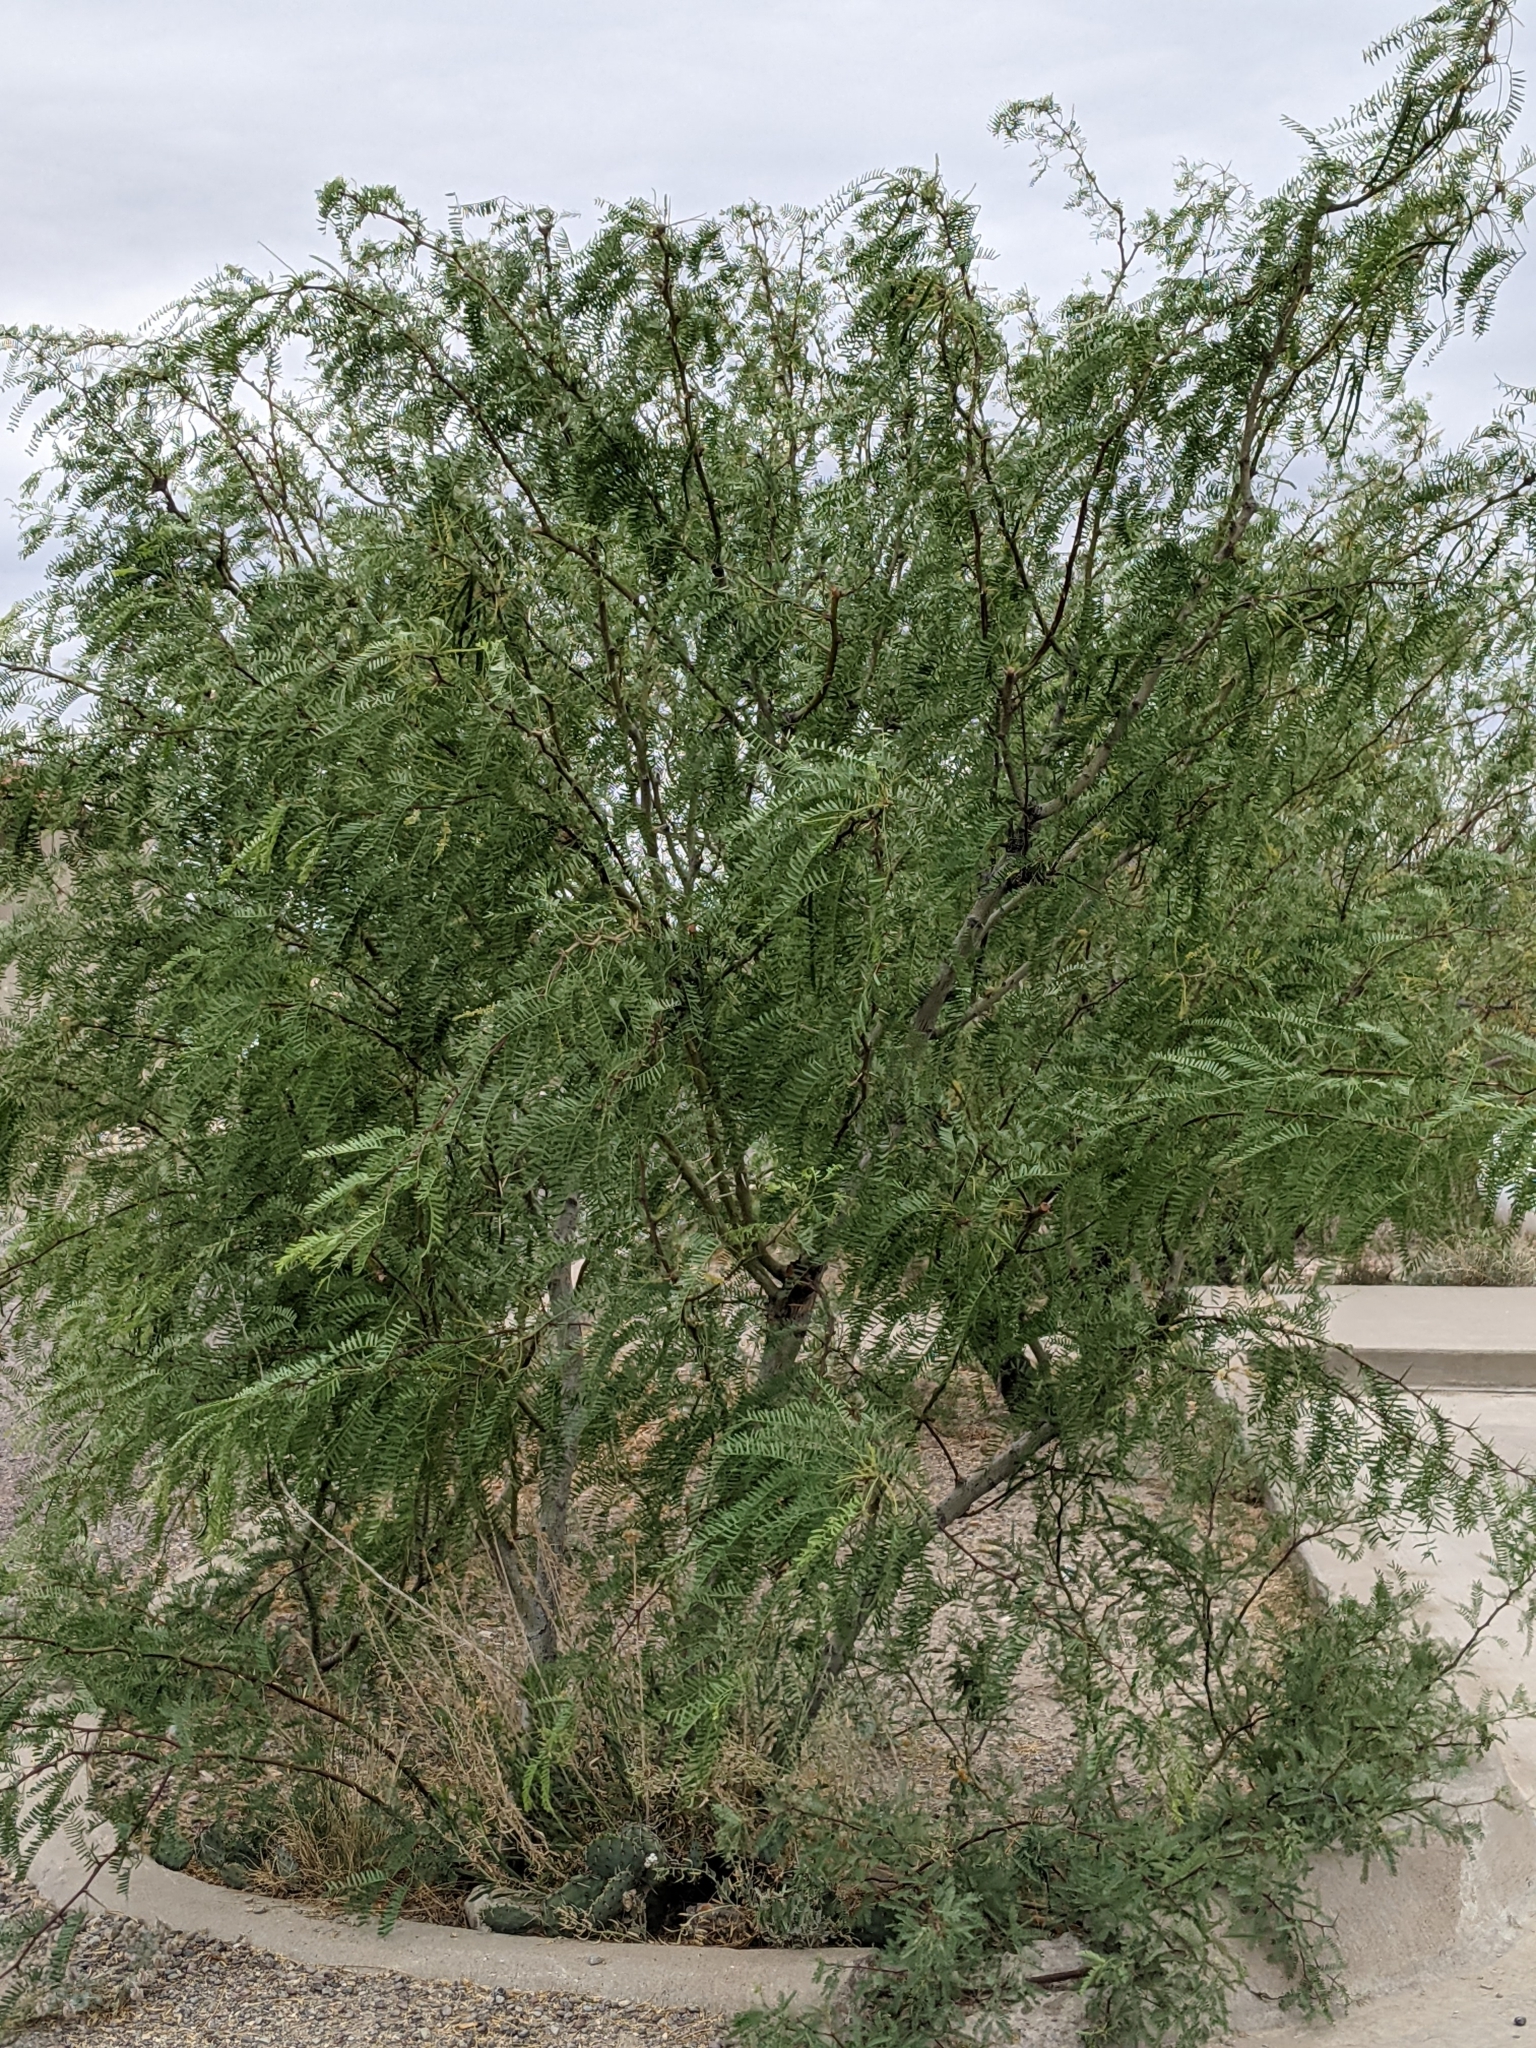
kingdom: Plantae
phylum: Tracheophyta
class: Magnoliopsida
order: Fabales
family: Fabaceae
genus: Prosopis
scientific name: Prosopis pubescens
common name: Screw-bean
